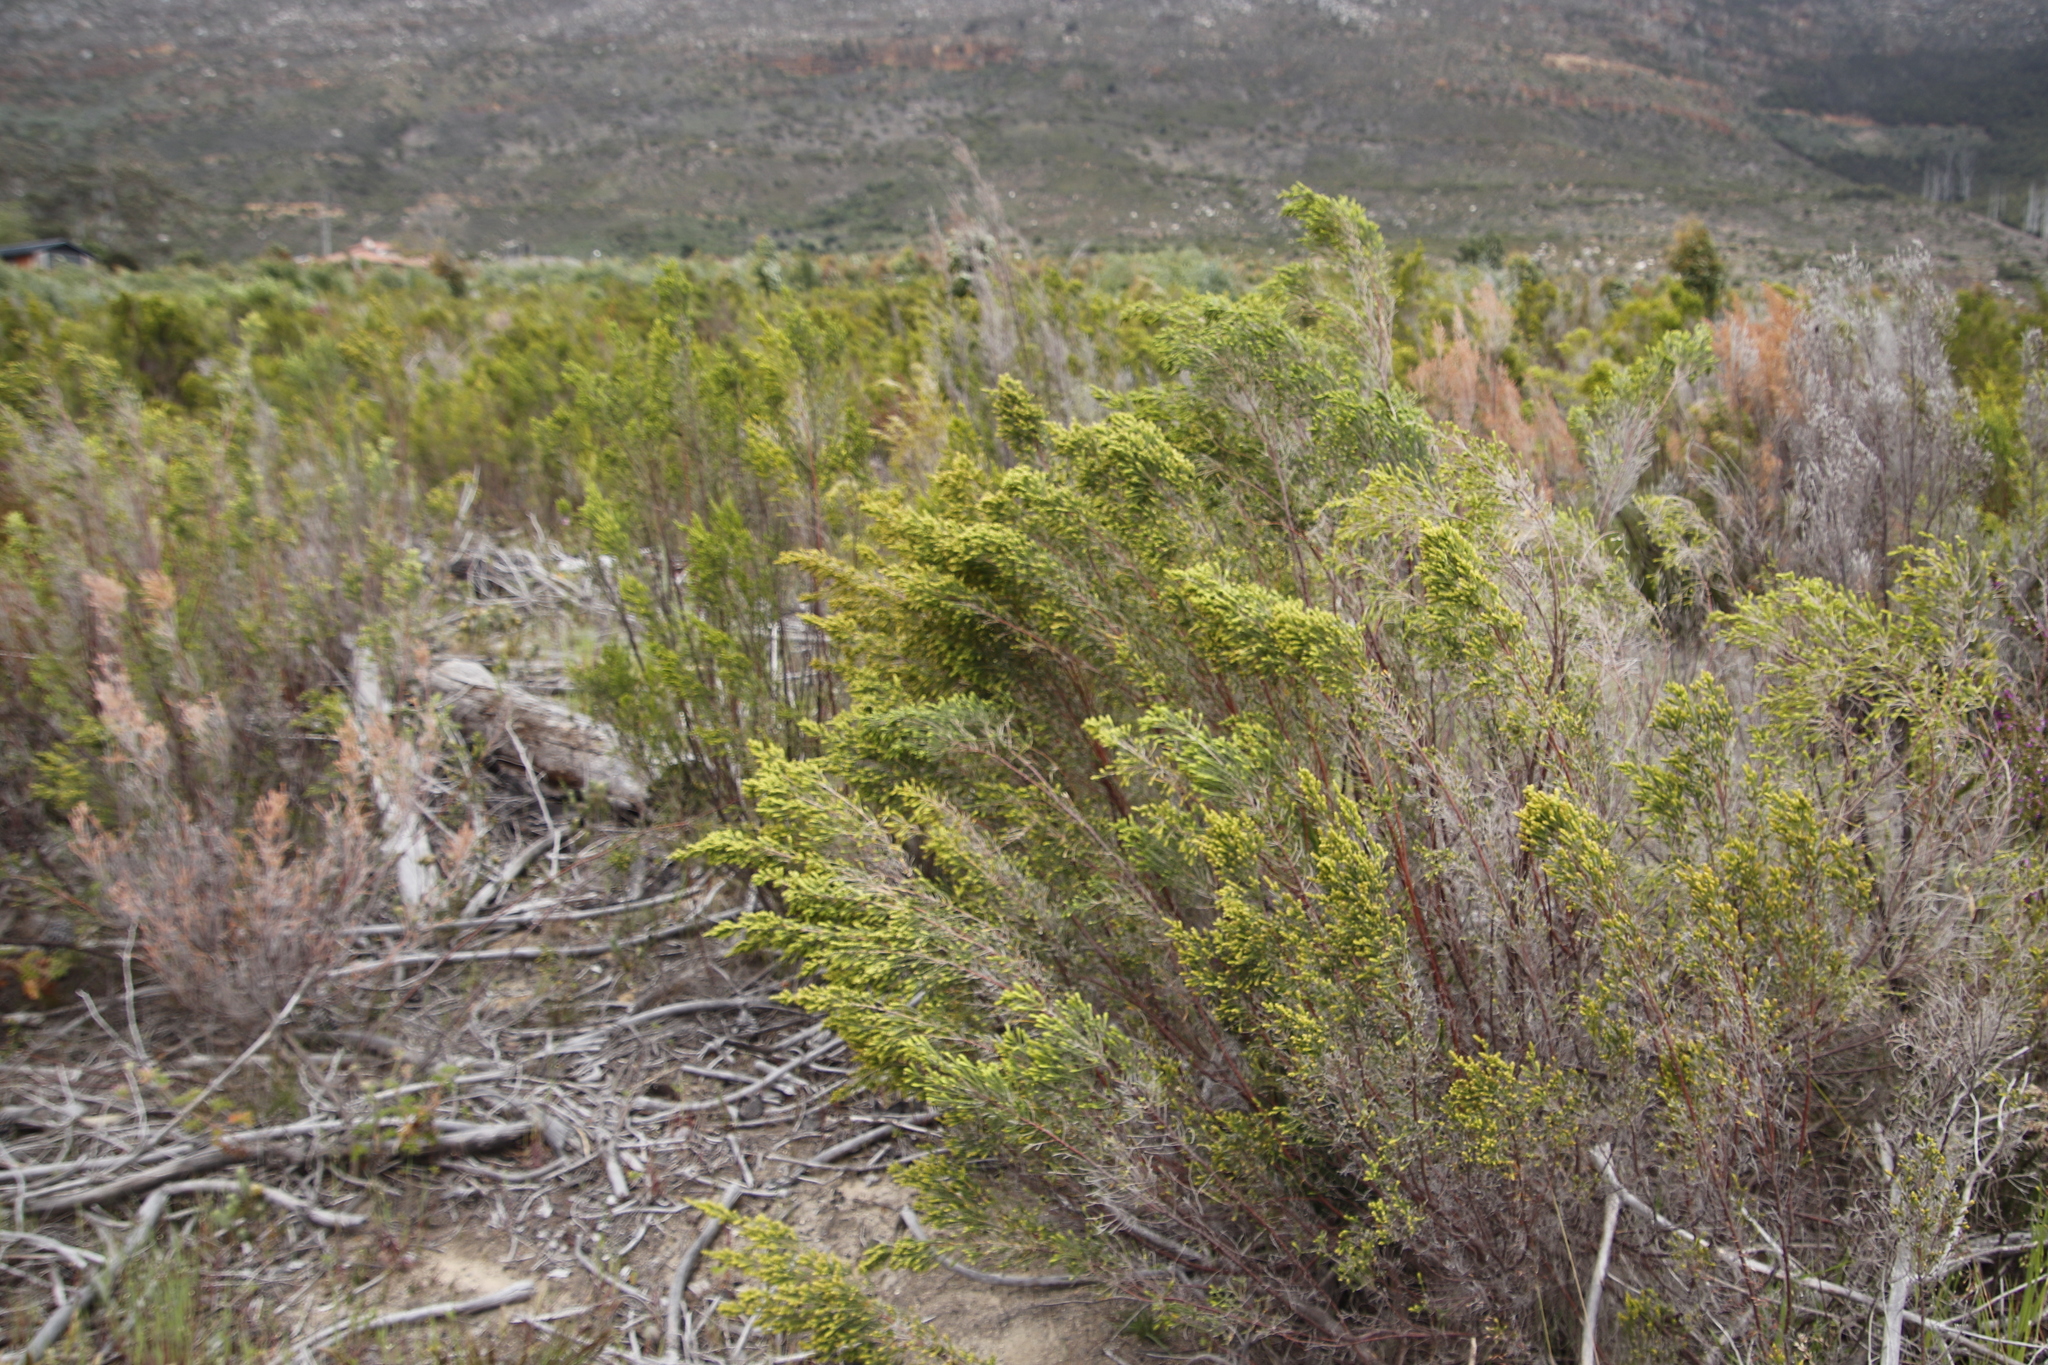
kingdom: Plantae
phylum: Tracheophyta
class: Magnoliopsida
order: Malvales
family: Thymelaeaceae
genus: Passerina
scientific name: Passerina corymbosa
